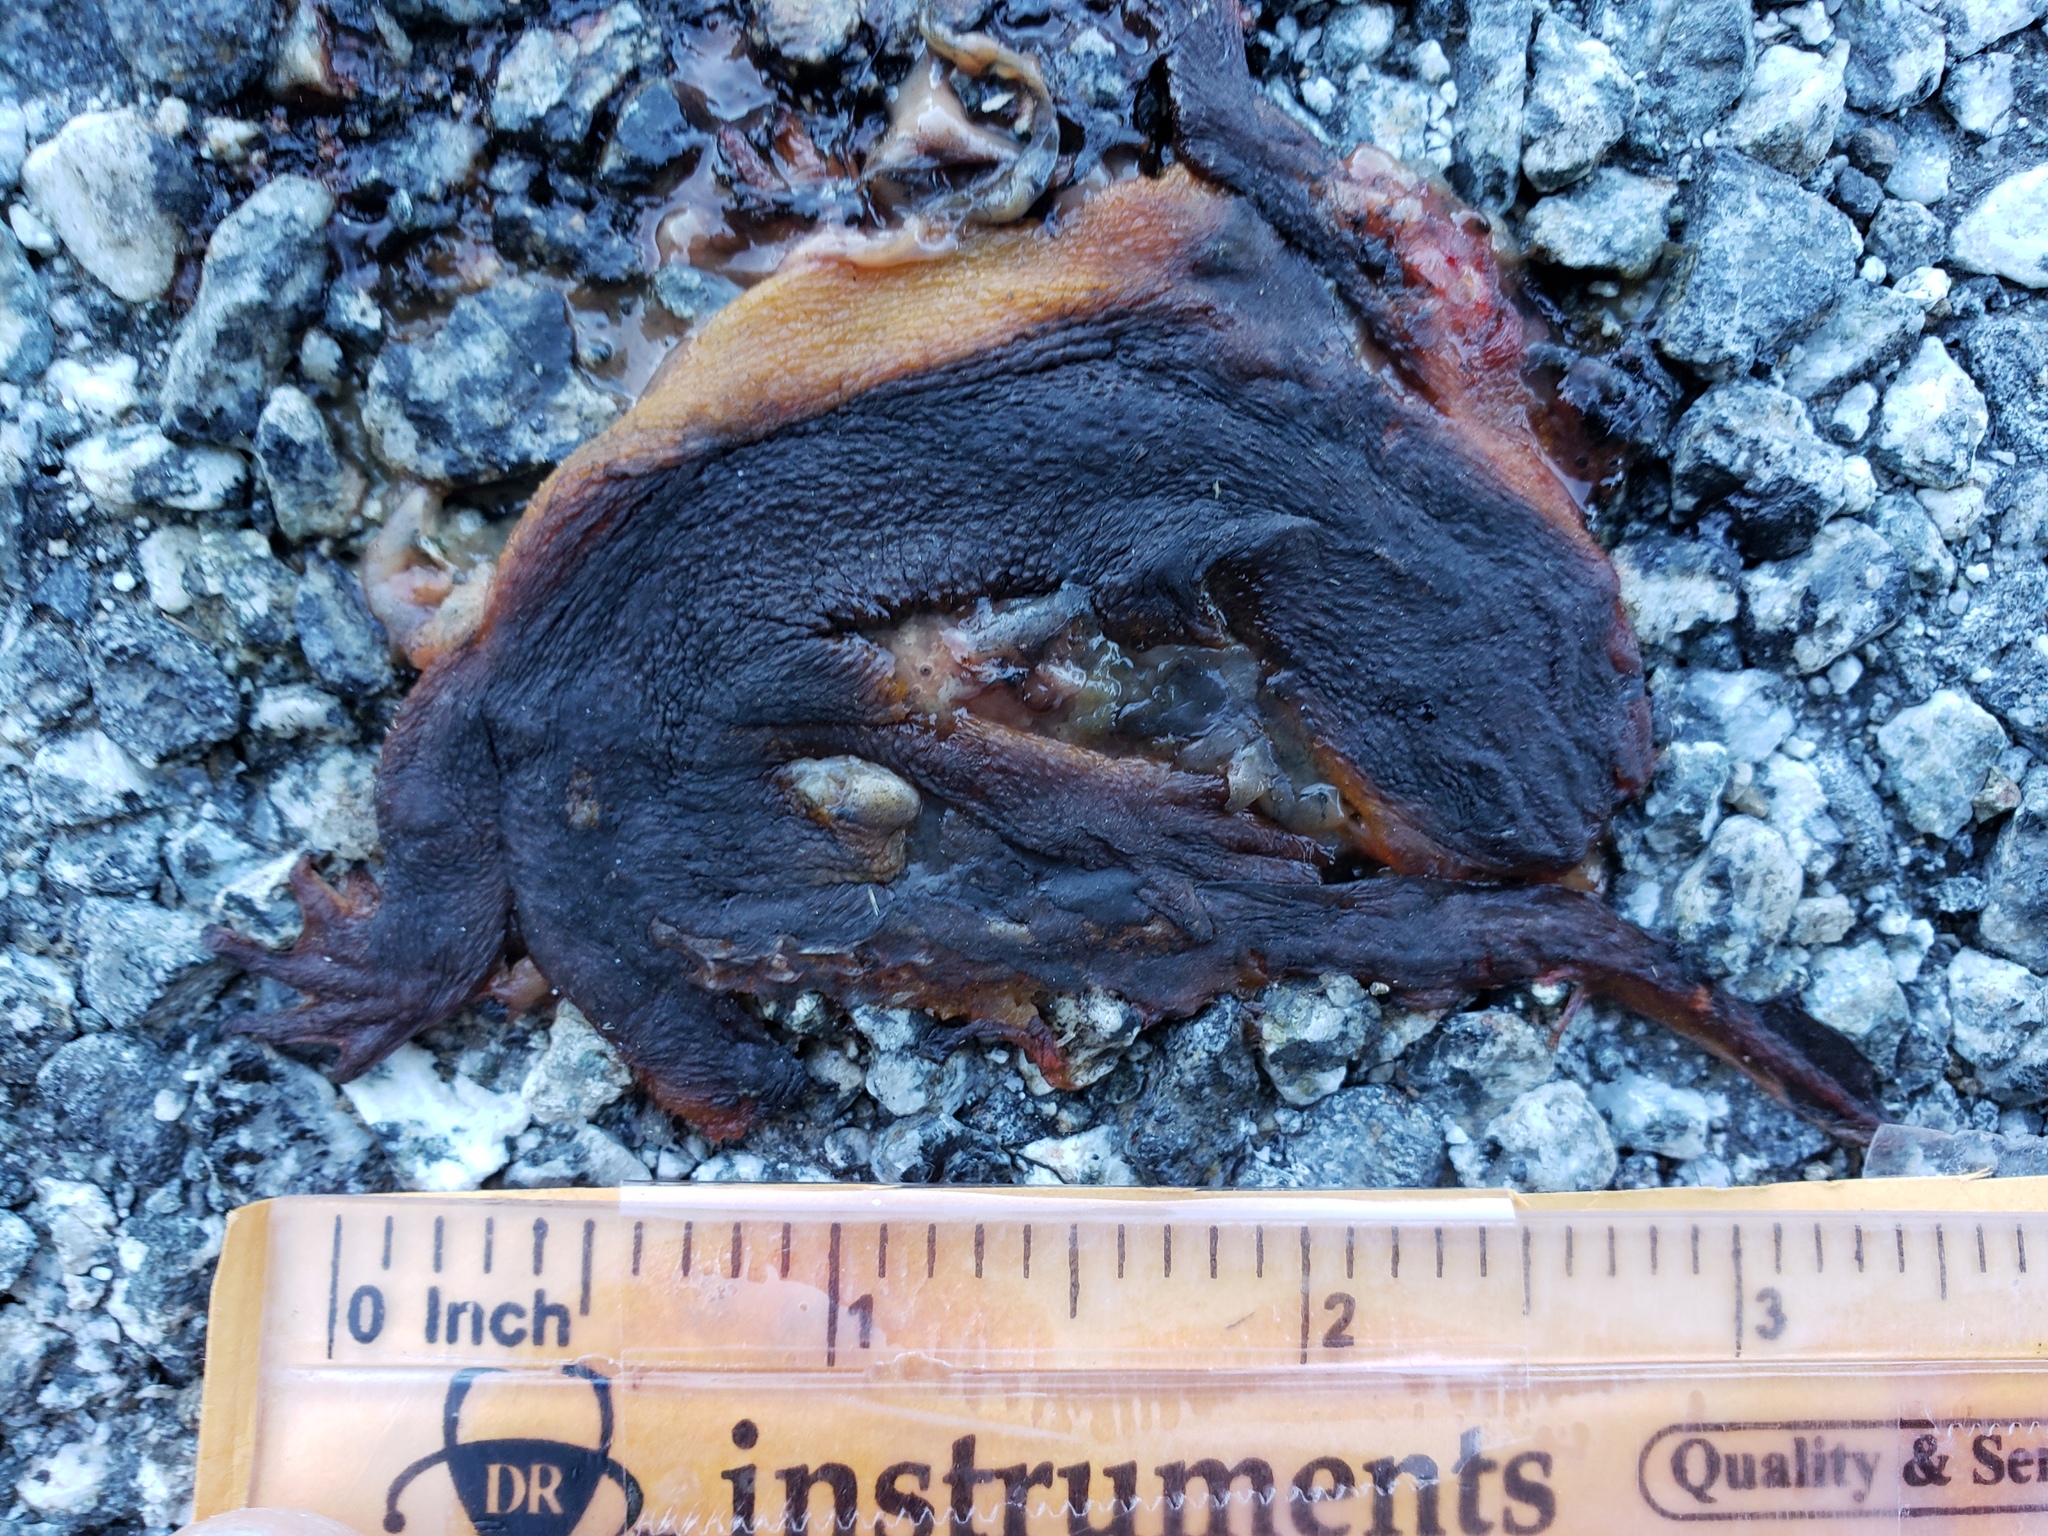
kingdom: Animalia
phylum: Chordata
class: Amphibia
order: Caudata
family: Salamandridae
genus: Taricha
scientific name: Taricha
